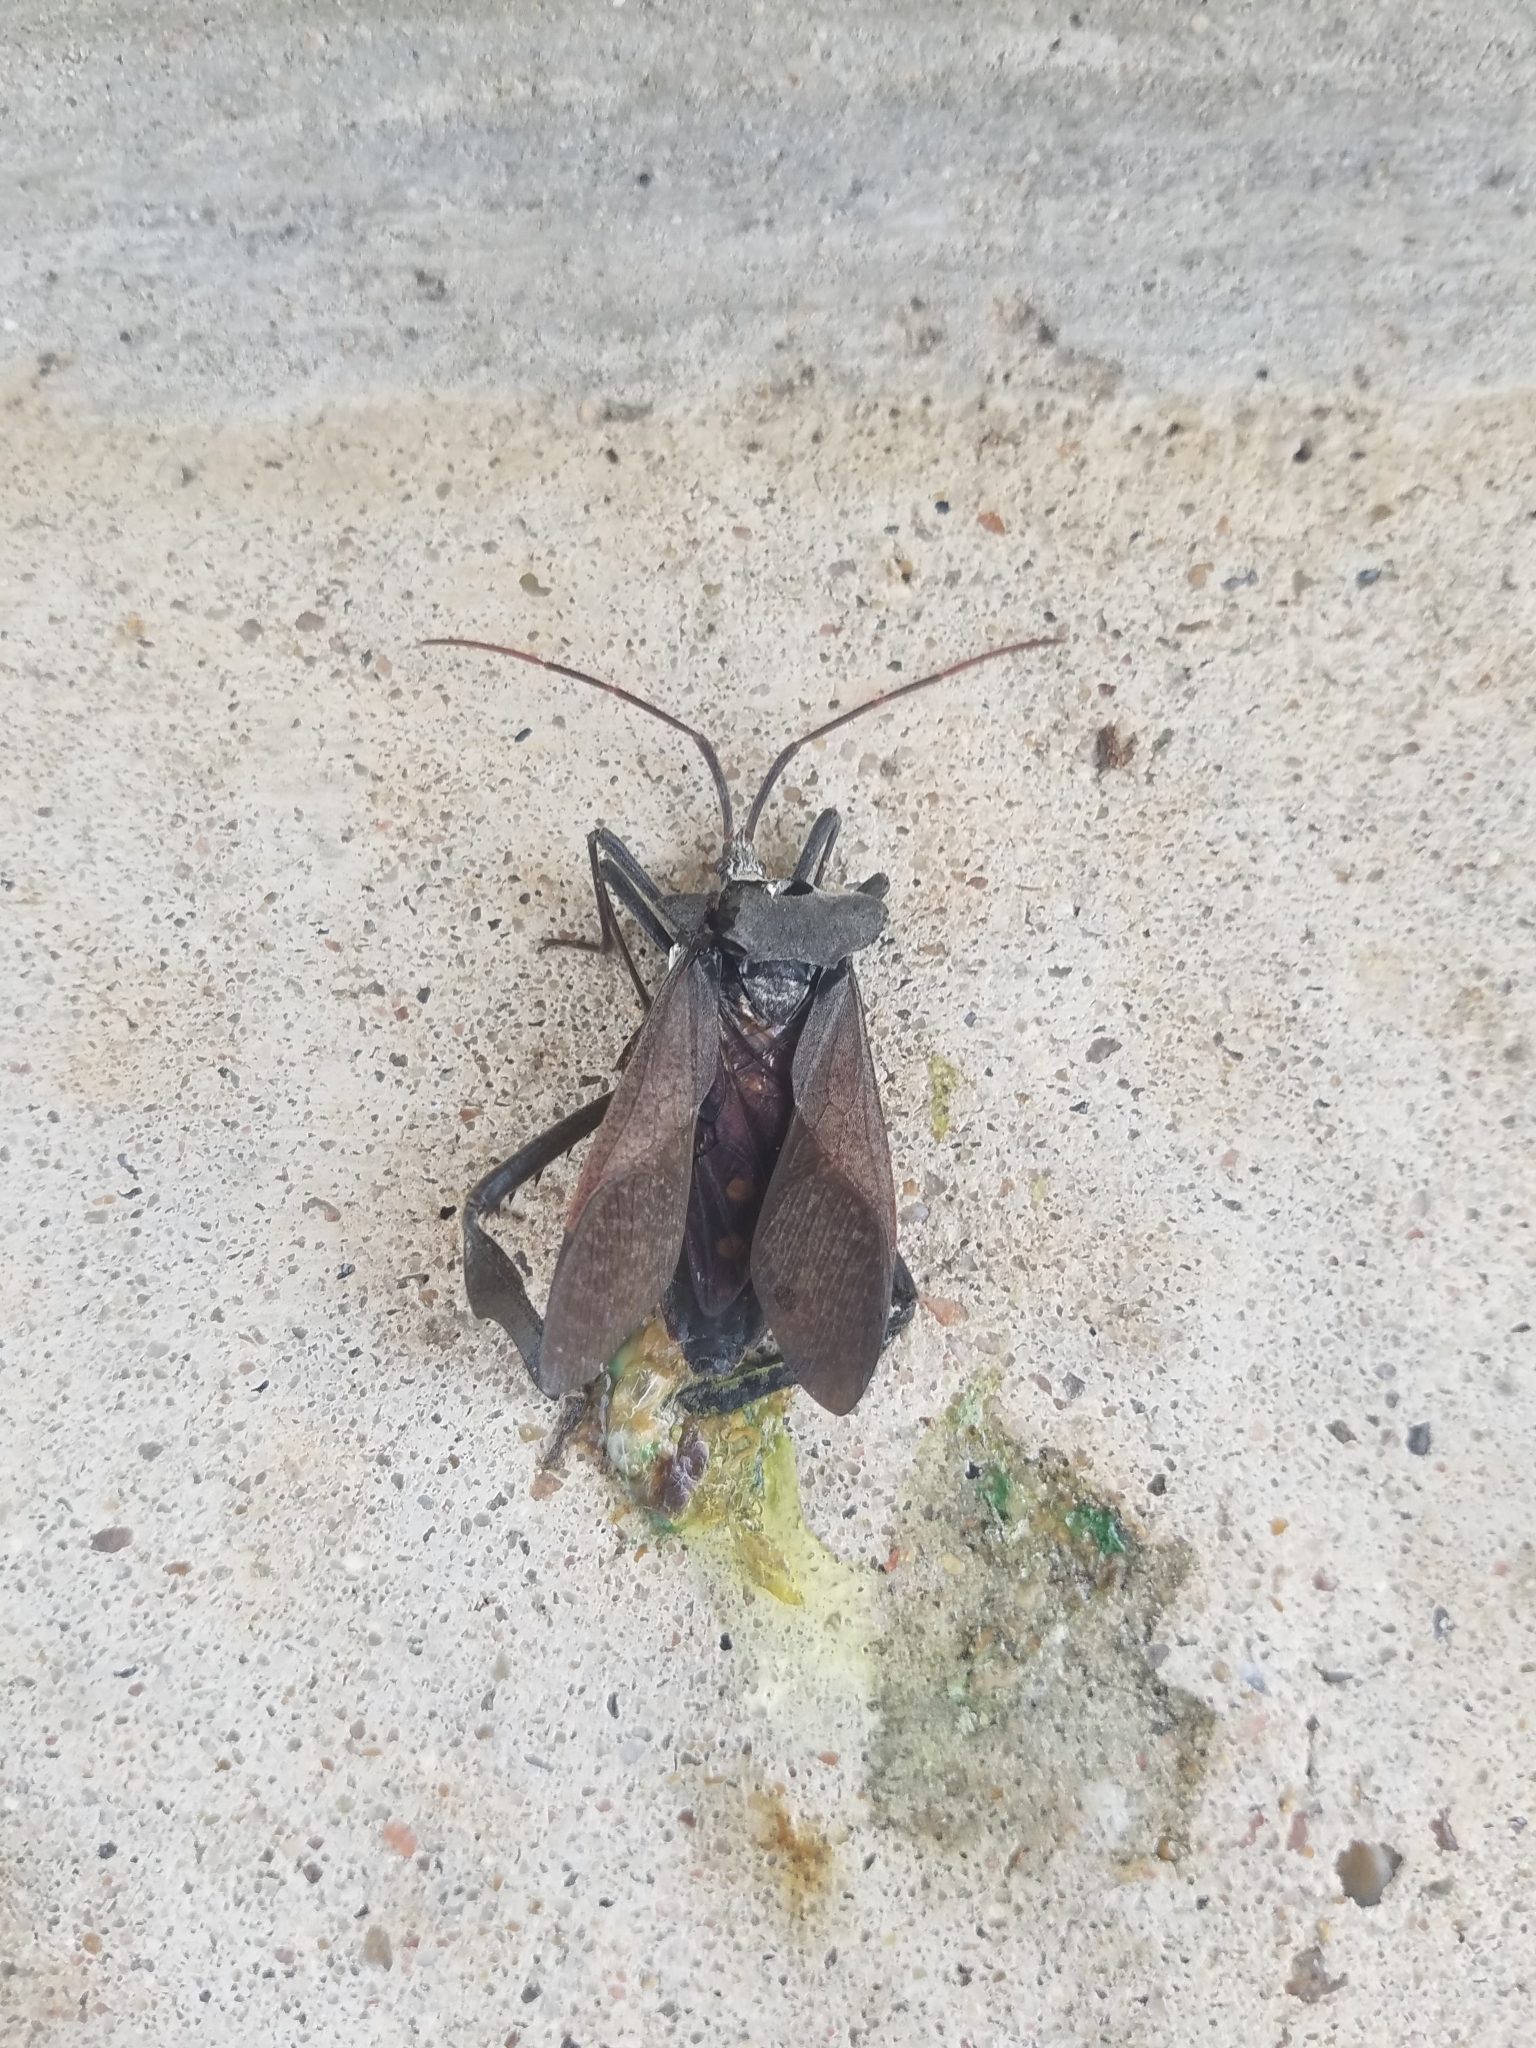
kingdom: Animalia
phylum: Arthropoda
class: Insecta
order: Hemiptera
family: Coreidae
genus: Acanthocephala
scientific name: Acanthocephala declivis
